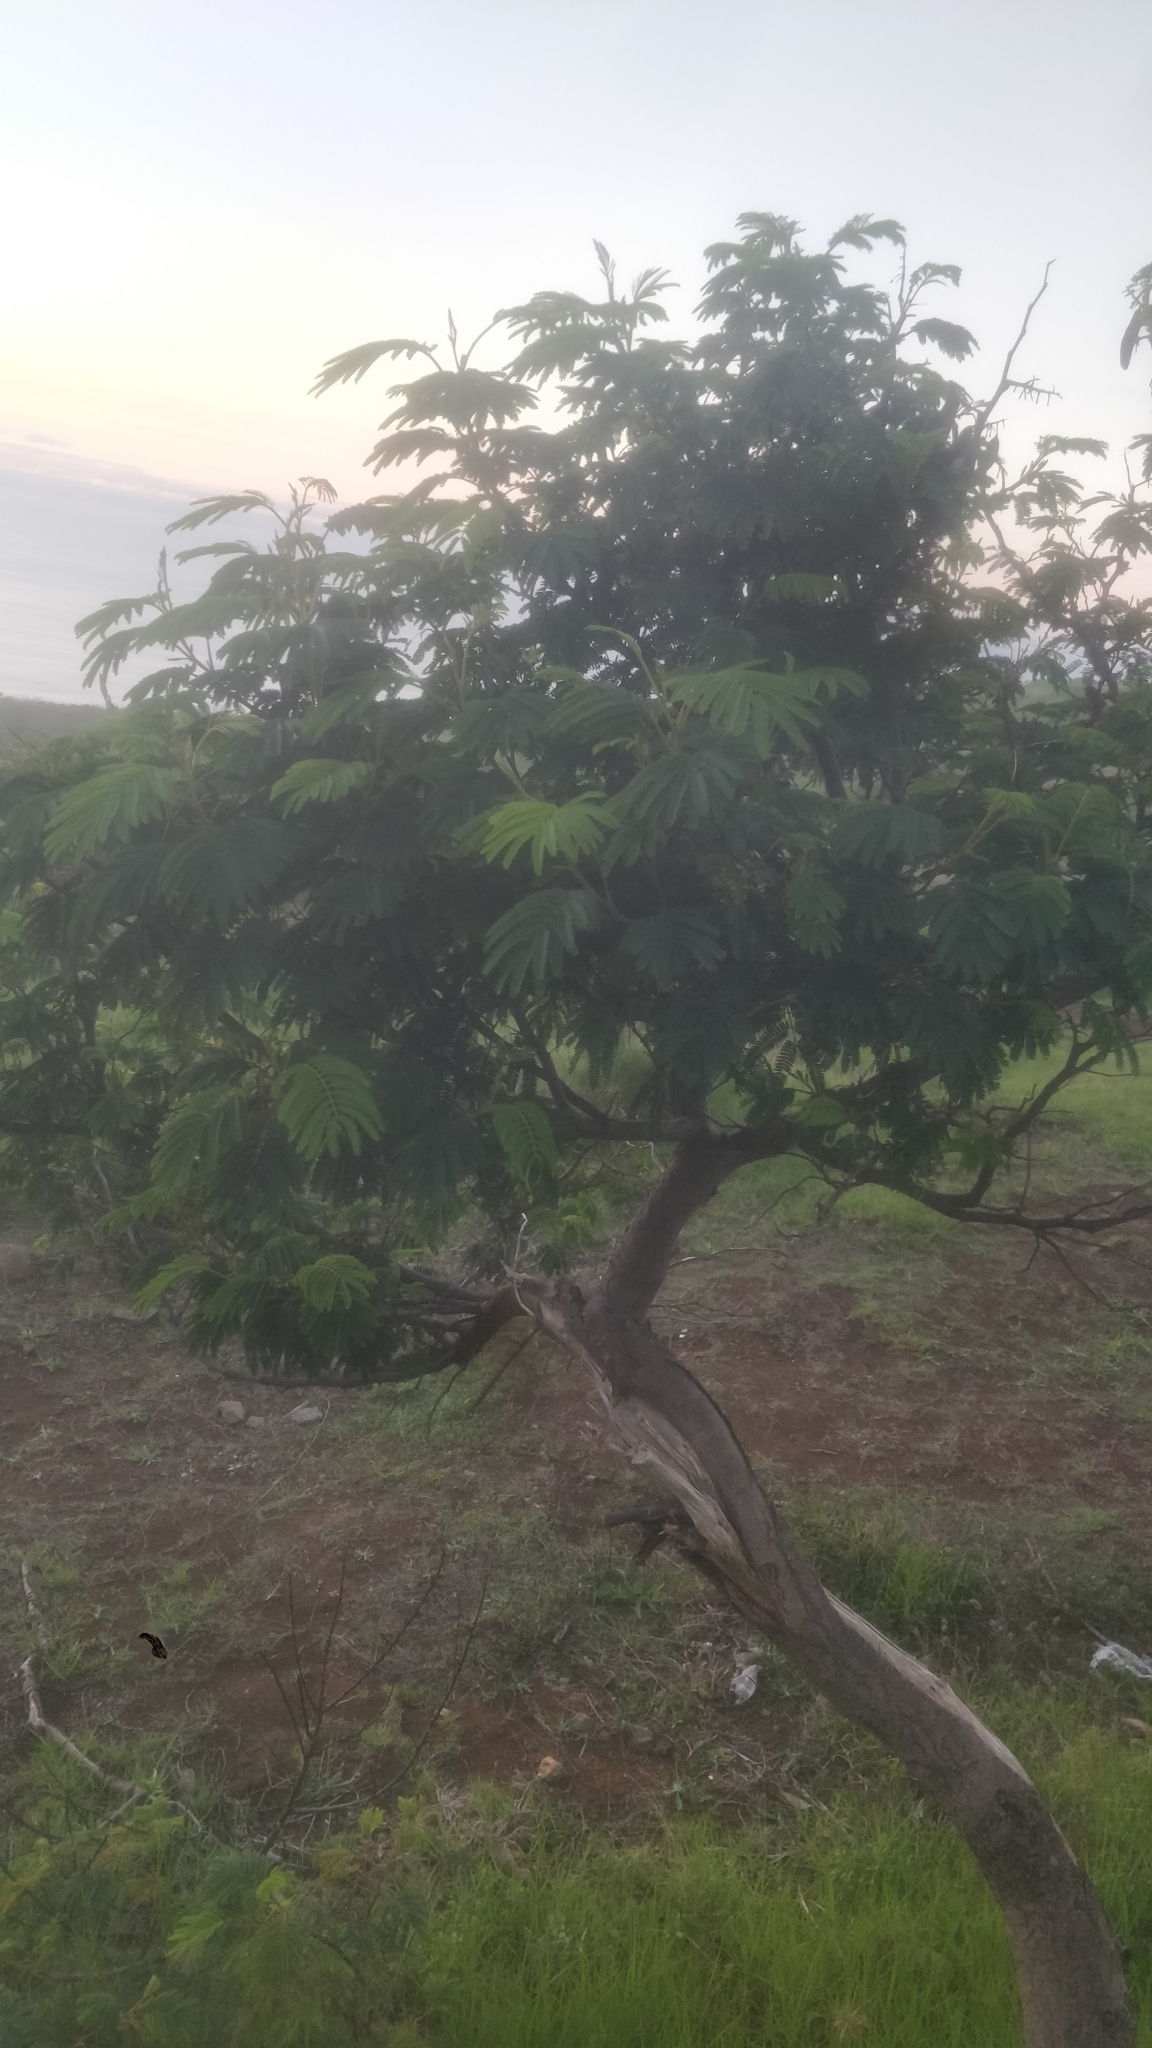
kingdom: Plantae
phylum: Tracheophyta
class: Magnoliopsida
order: Fabales
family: Fabaceae
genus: Paraserianthes
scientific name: Paraserianthes lophantha
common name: Plume albizia
